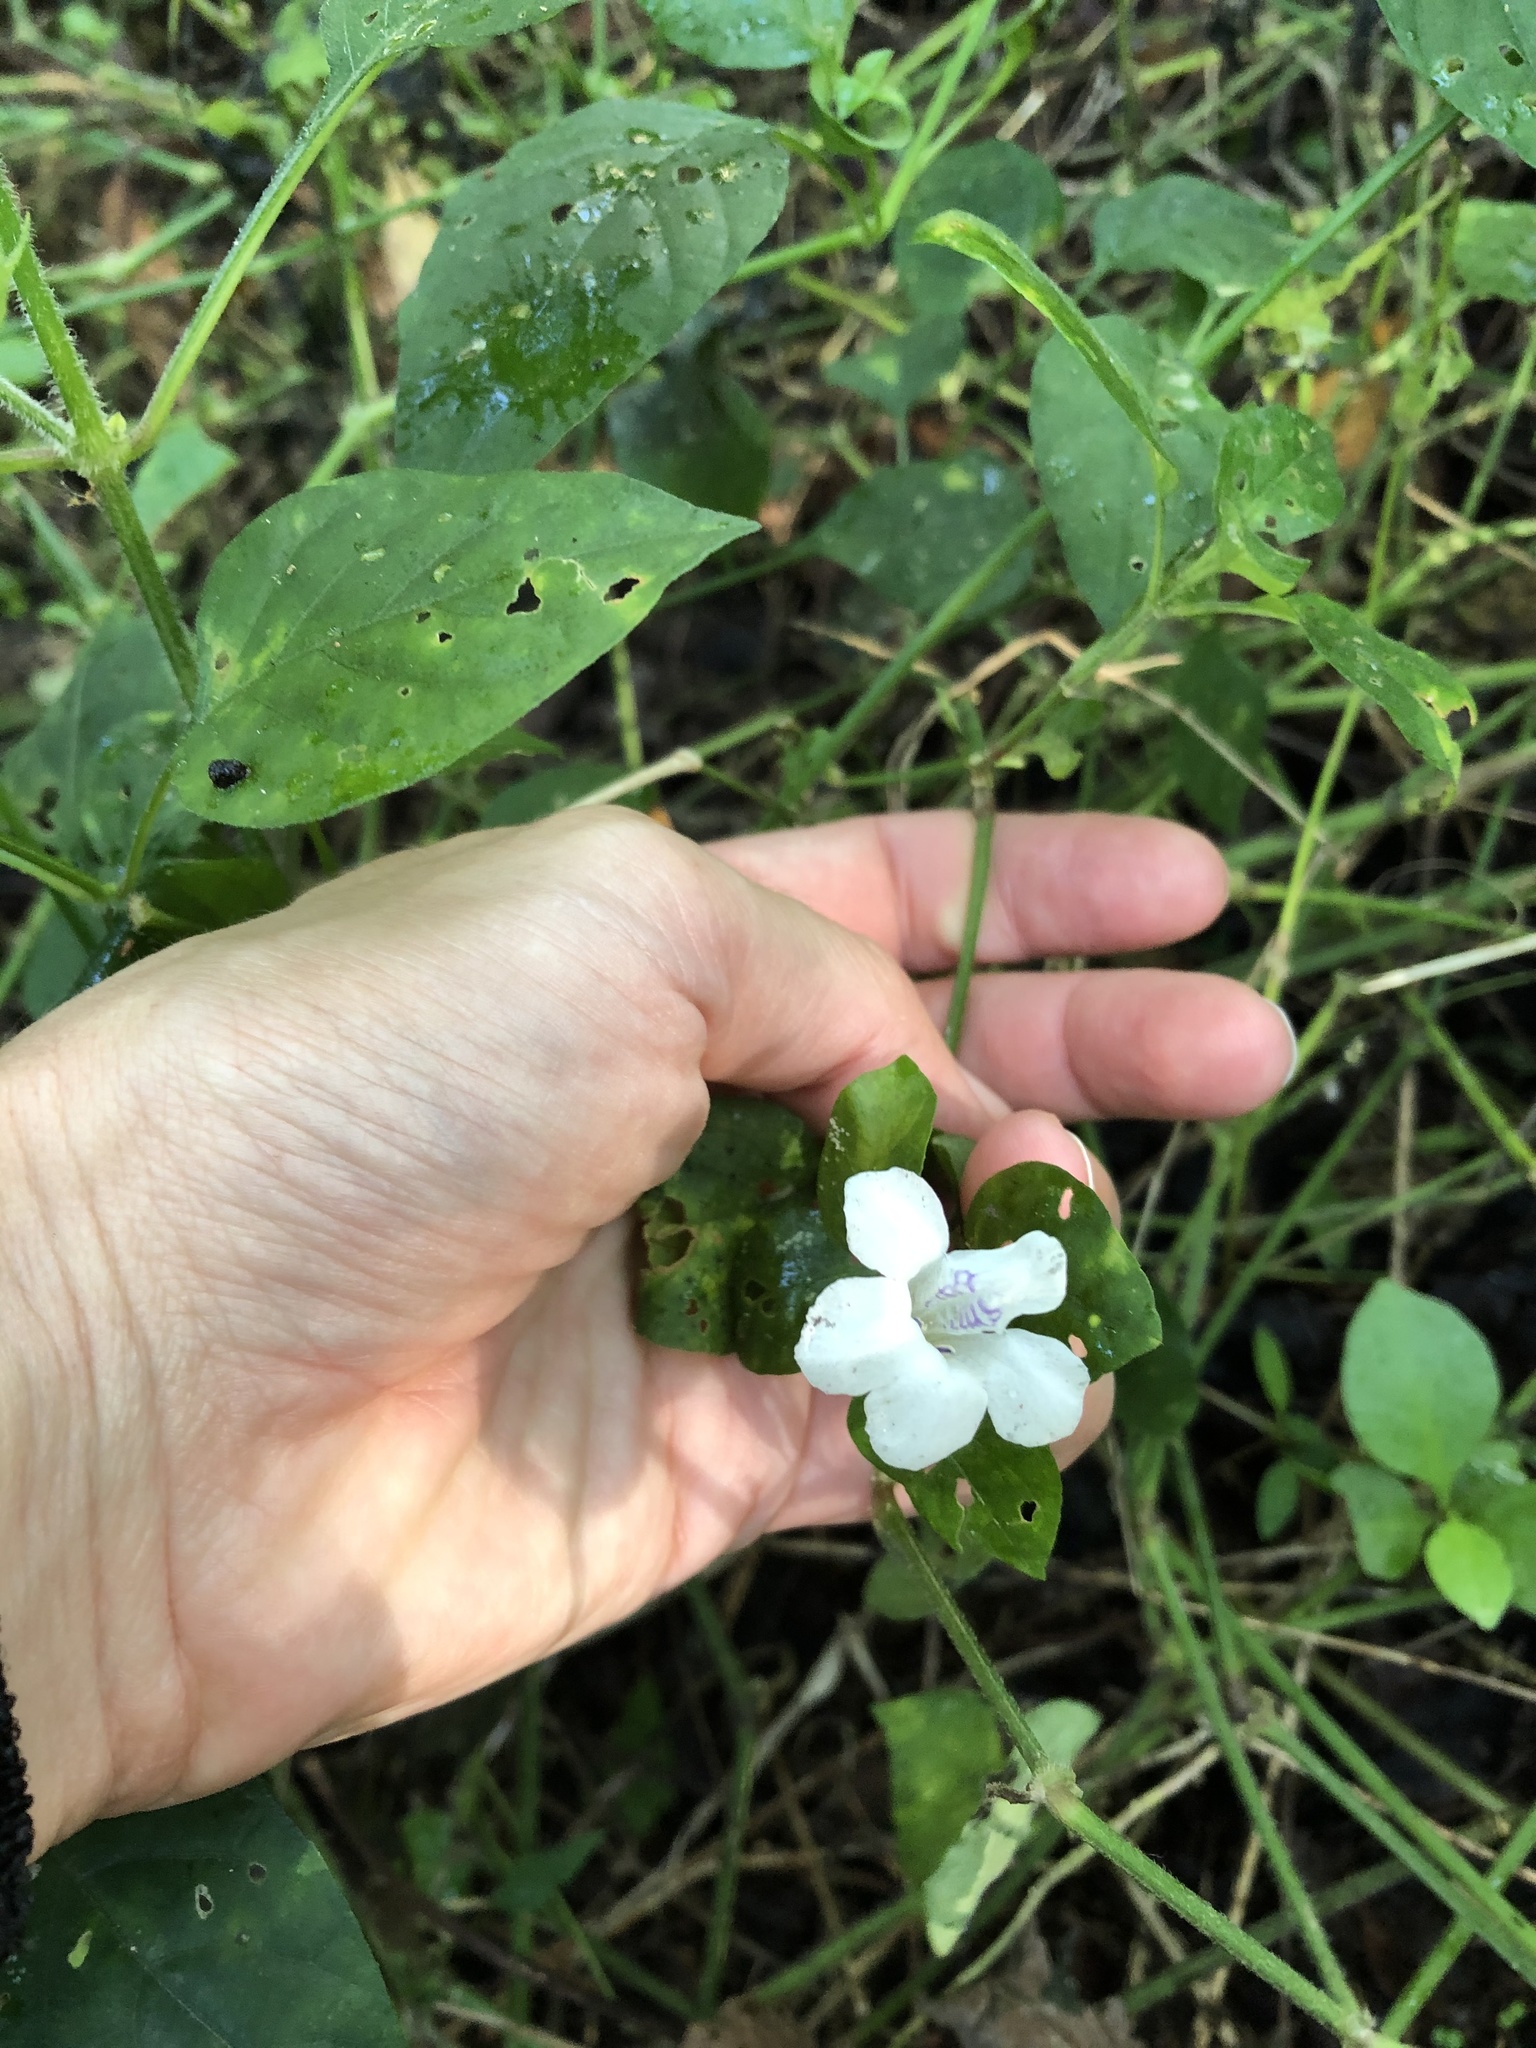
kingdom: Plantae
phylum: Tracheophyta
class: Magnoliopsida
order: Lamiales
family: Acanthaceae
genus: Asystasia
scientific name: Asystasia intrusa
